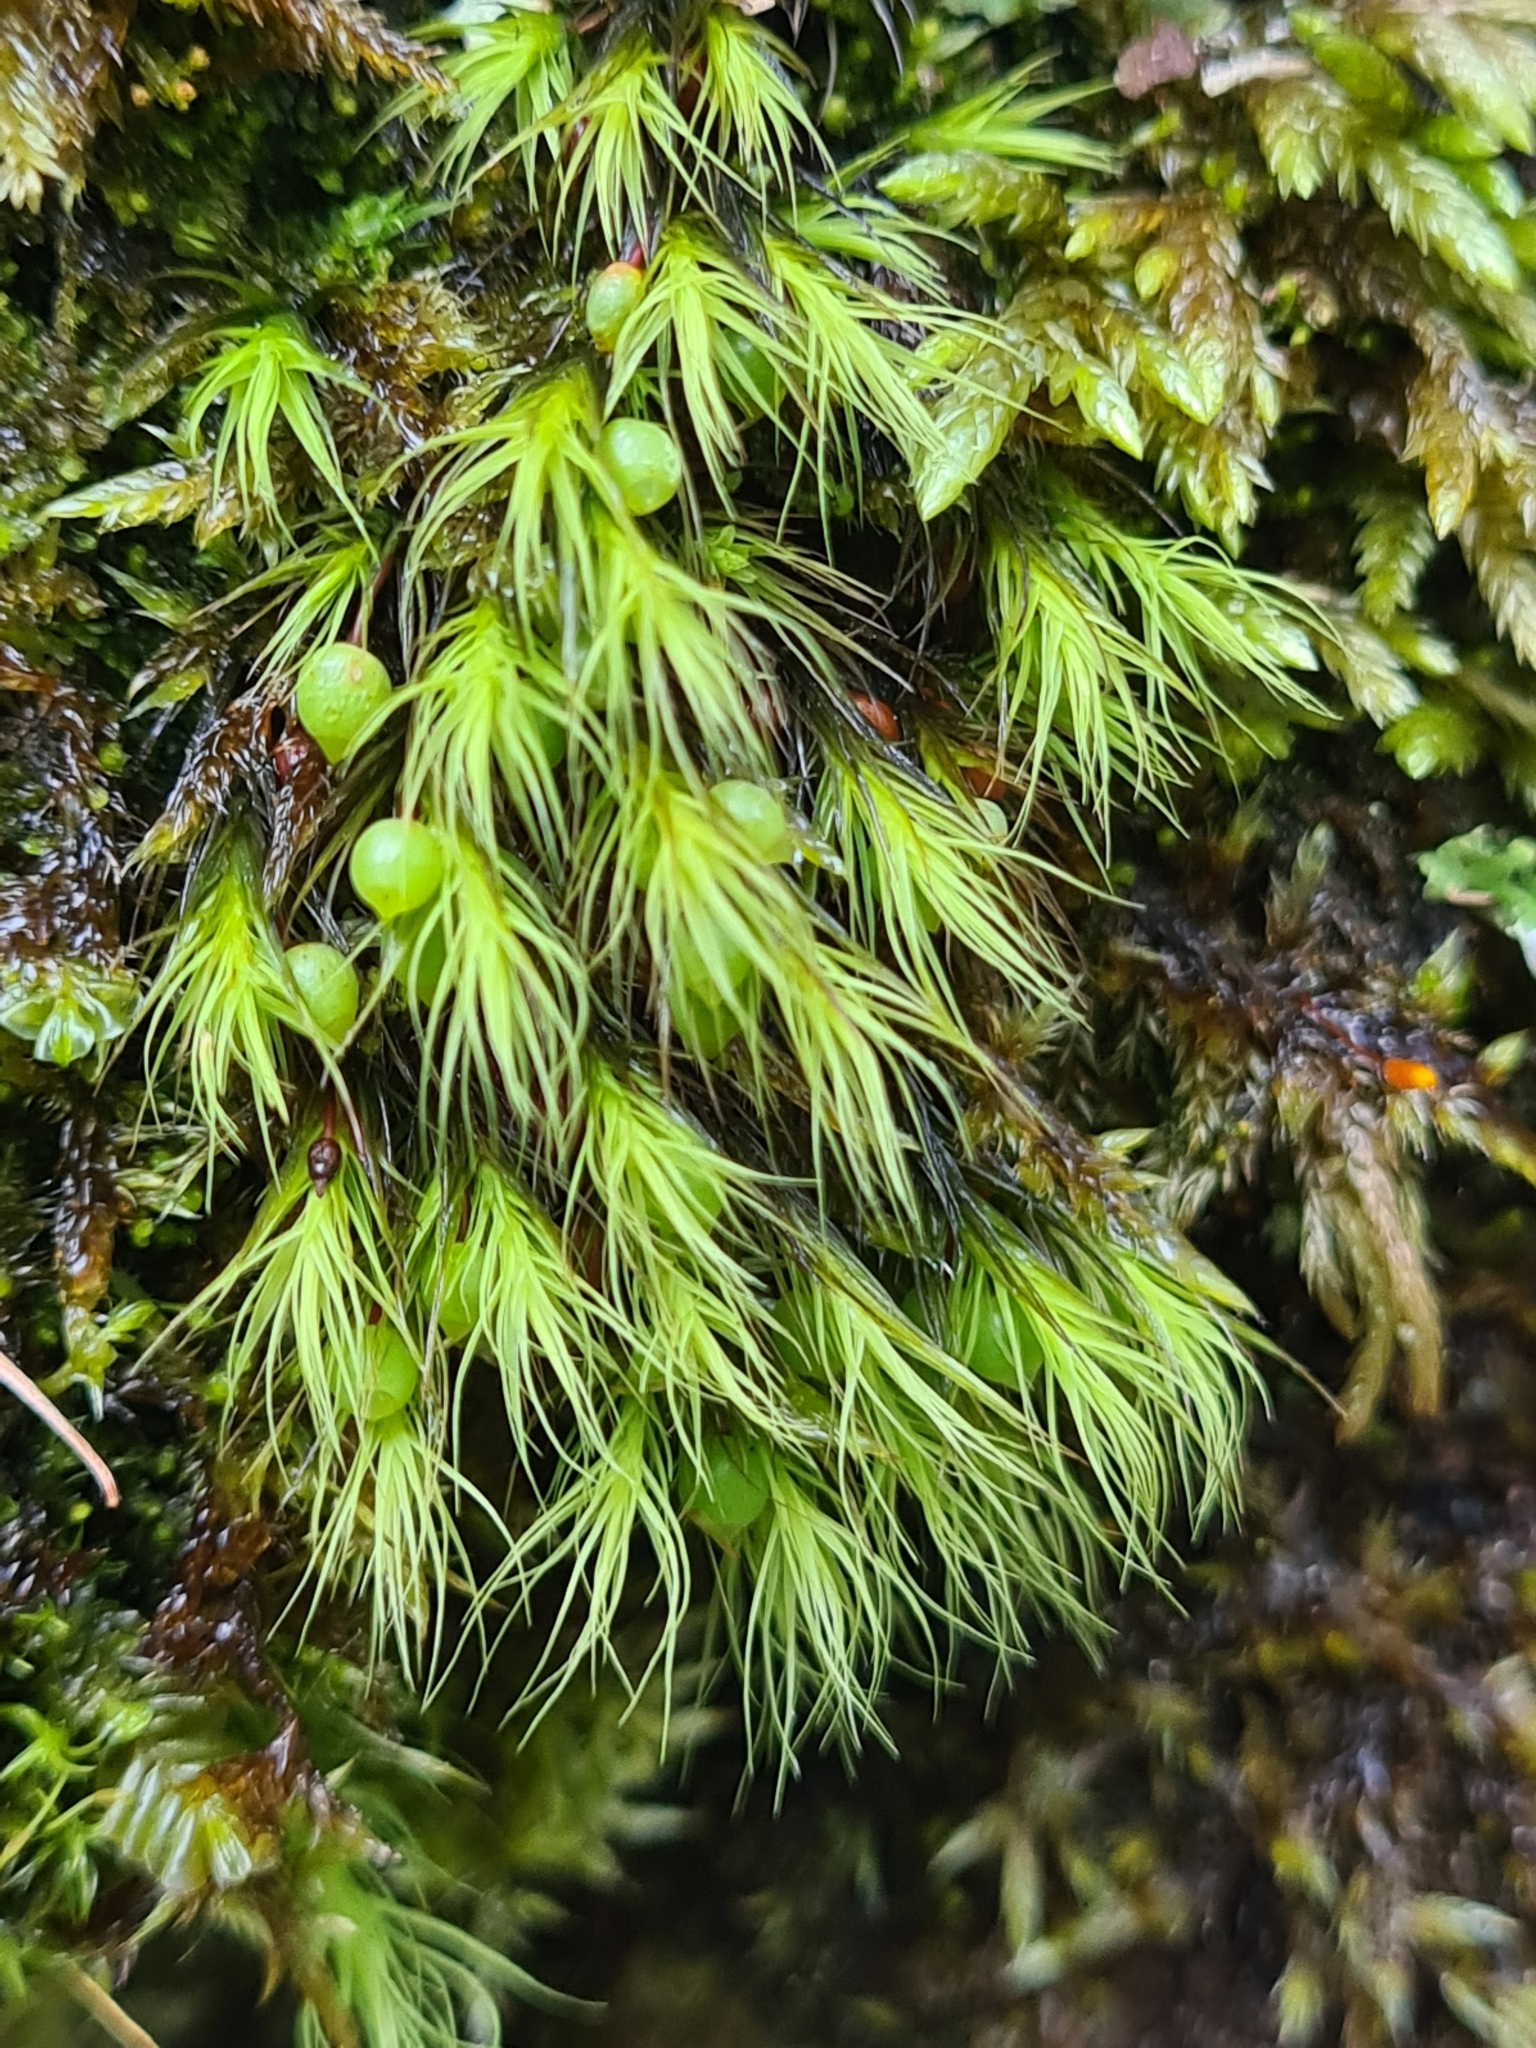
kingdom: Plantae
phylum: Bryophyta
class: Bryopsida
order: Bartramiales
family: Bartramiaceae
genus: Bartramia
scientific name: Bartramia halleriana
